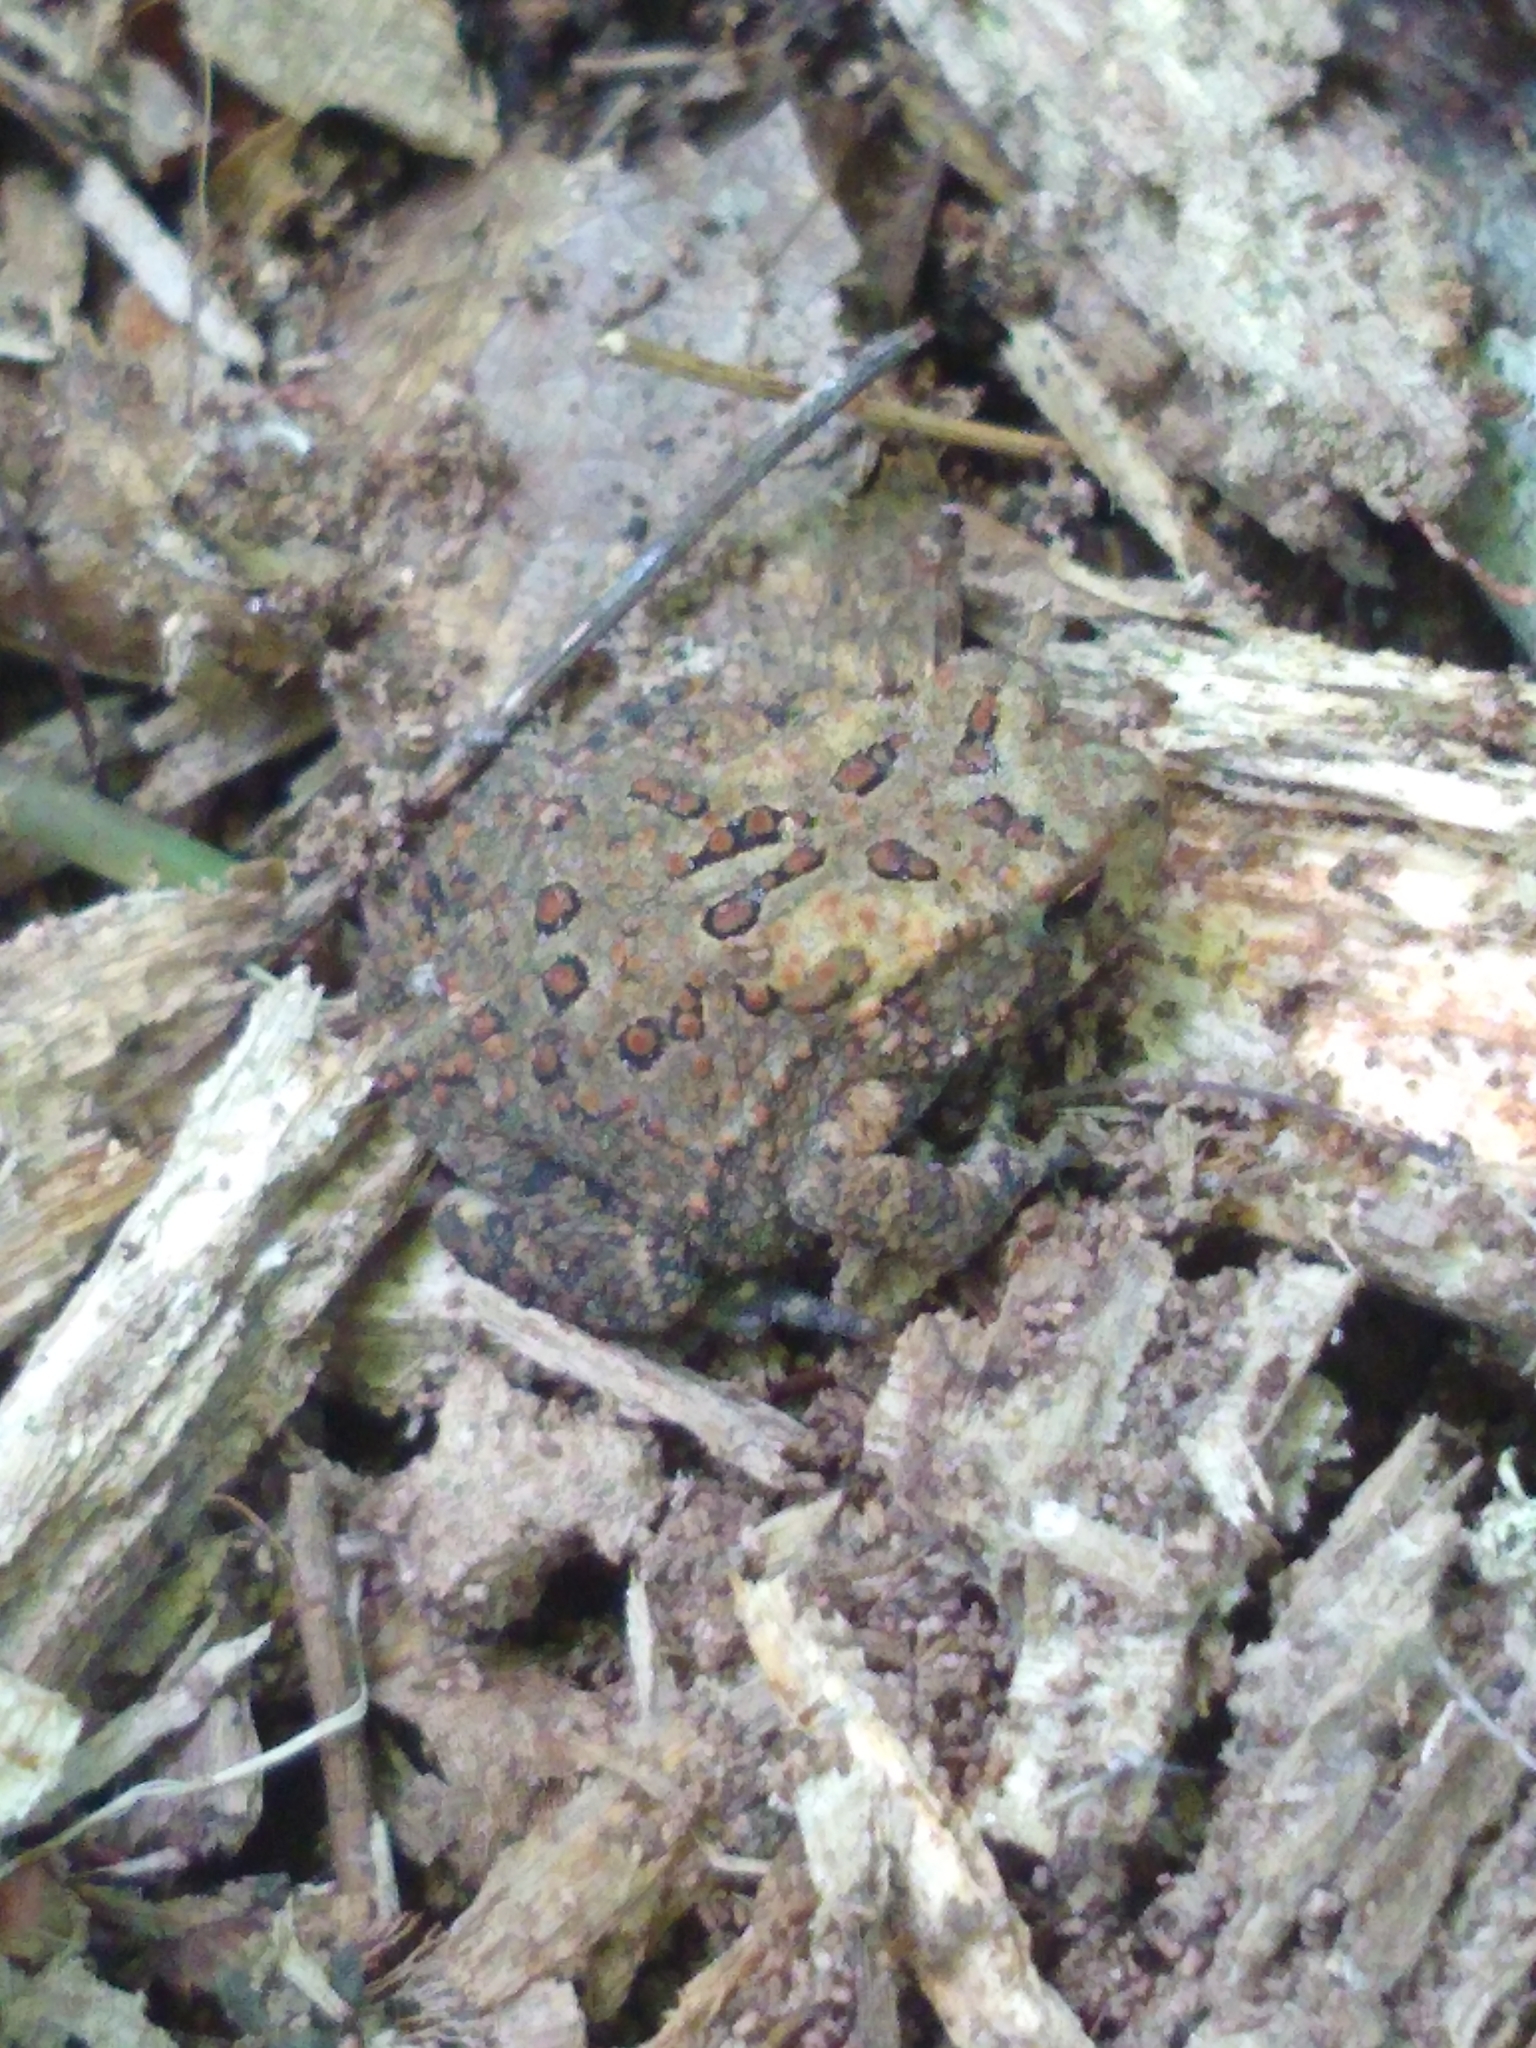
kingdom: Animalia
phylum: Chordata
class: Amphibia
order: Anura
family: Bufonidae
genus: Anaxyrus
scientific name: Anaxyrus americanus
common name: American toad
